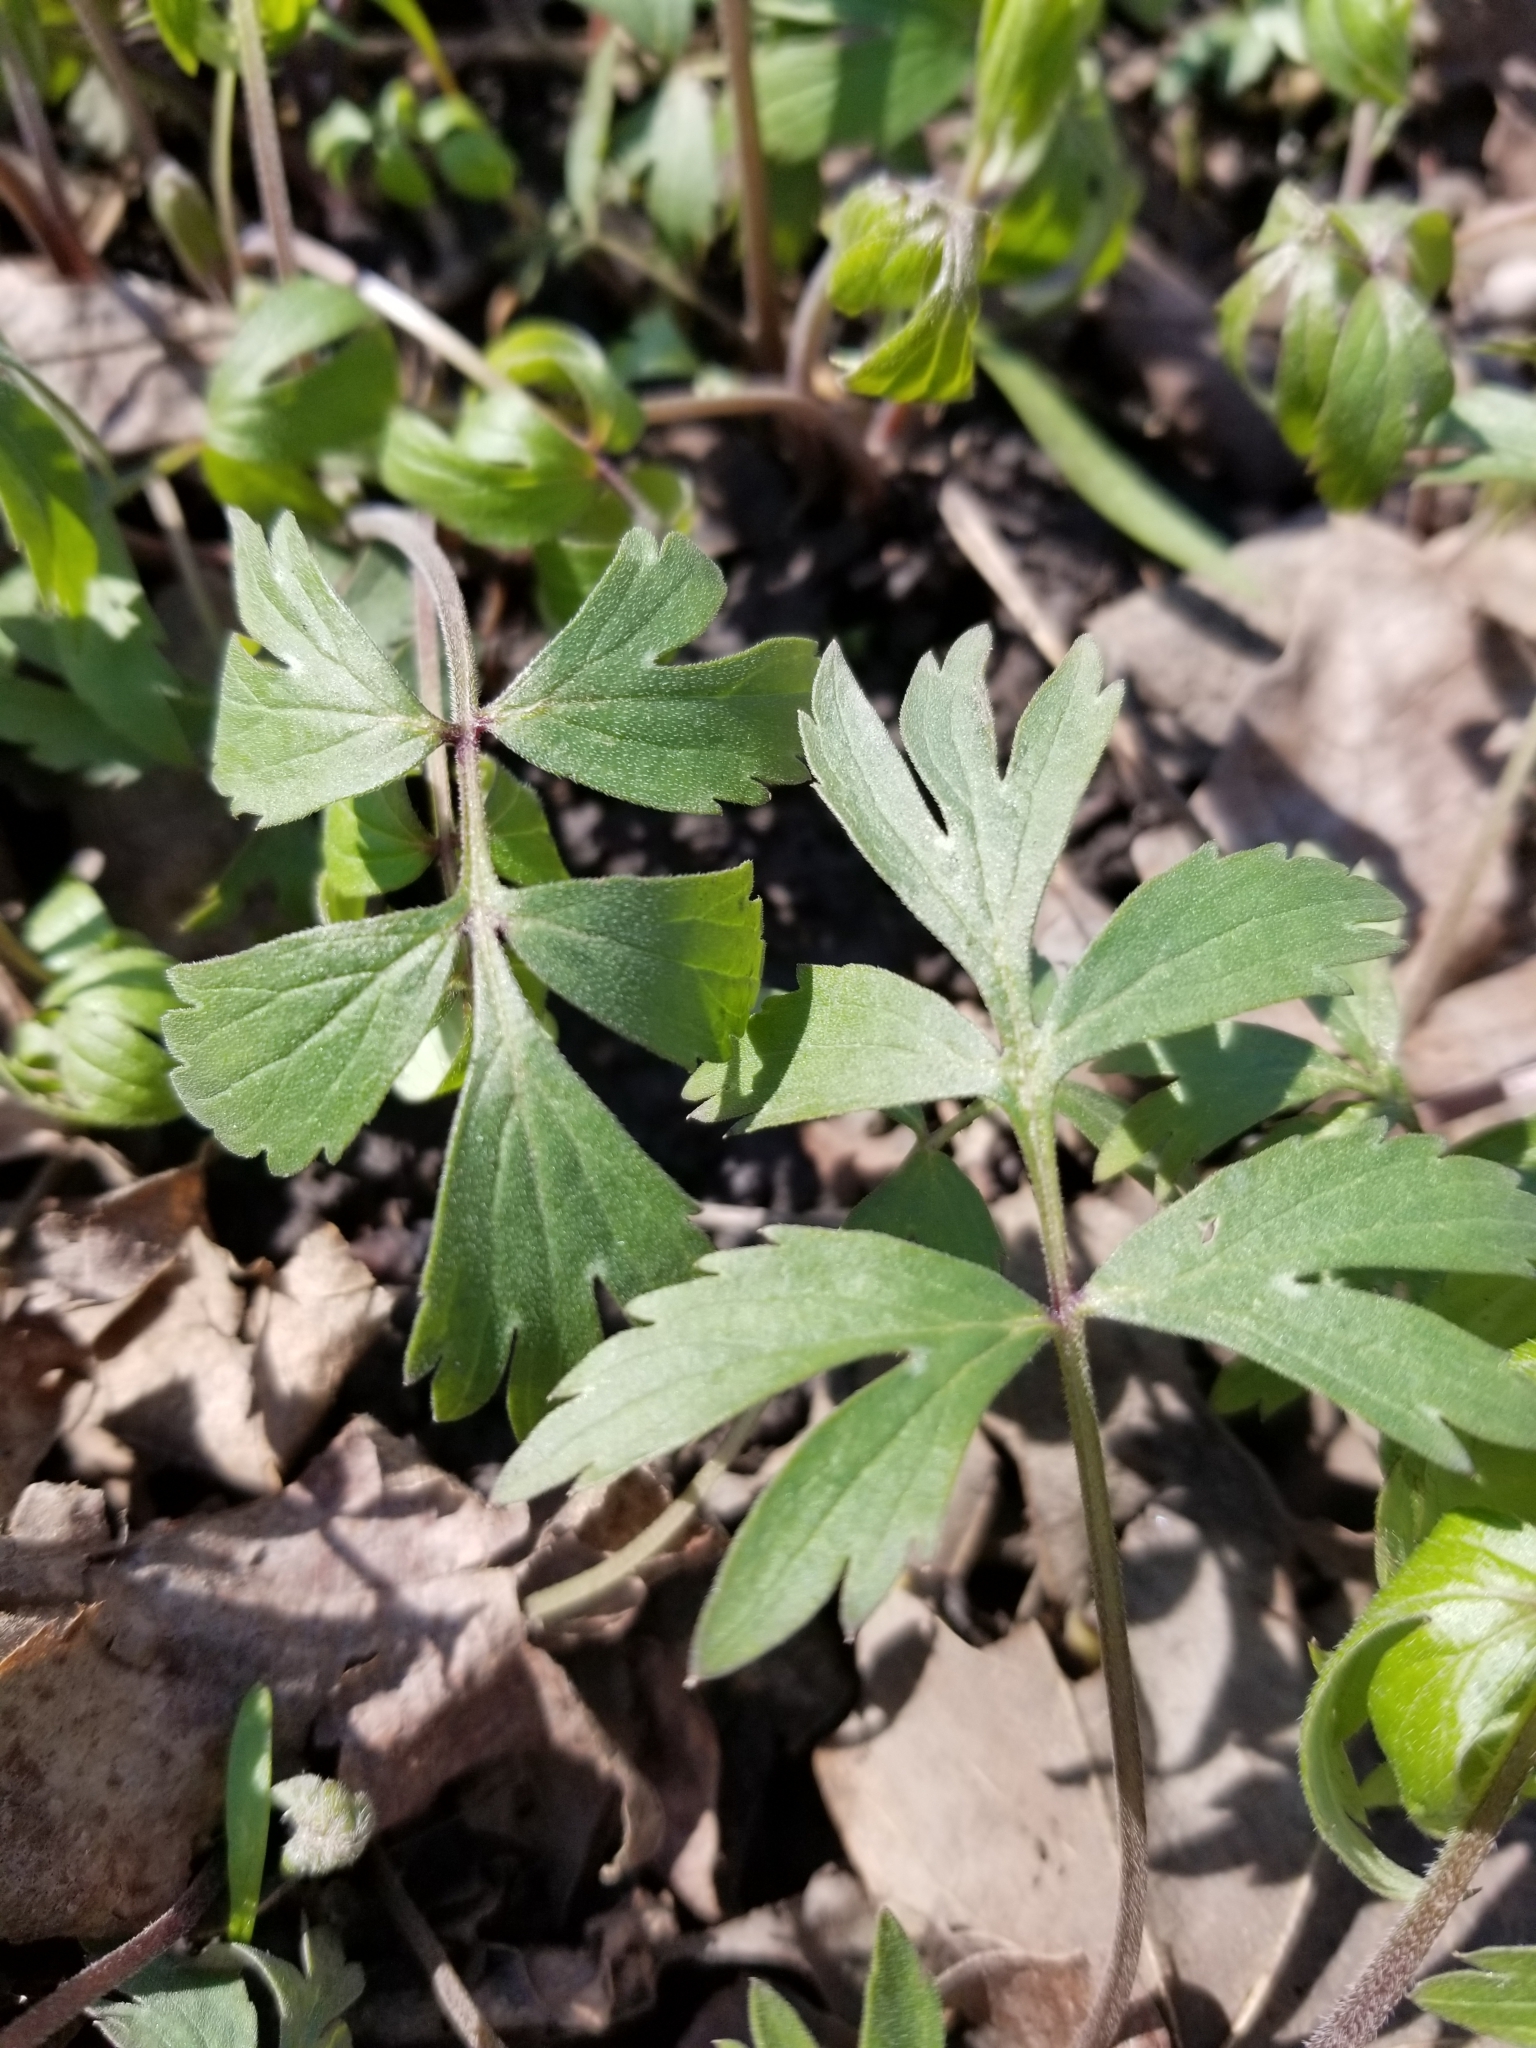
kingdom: Plantae
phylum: Tracheophyta
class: Magnoliopsida
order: Boraginales
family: Hydrophyllaceae
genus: Hydrophyllum
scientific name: Hydrophyllum virginianum
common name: Virginia waterleaf
